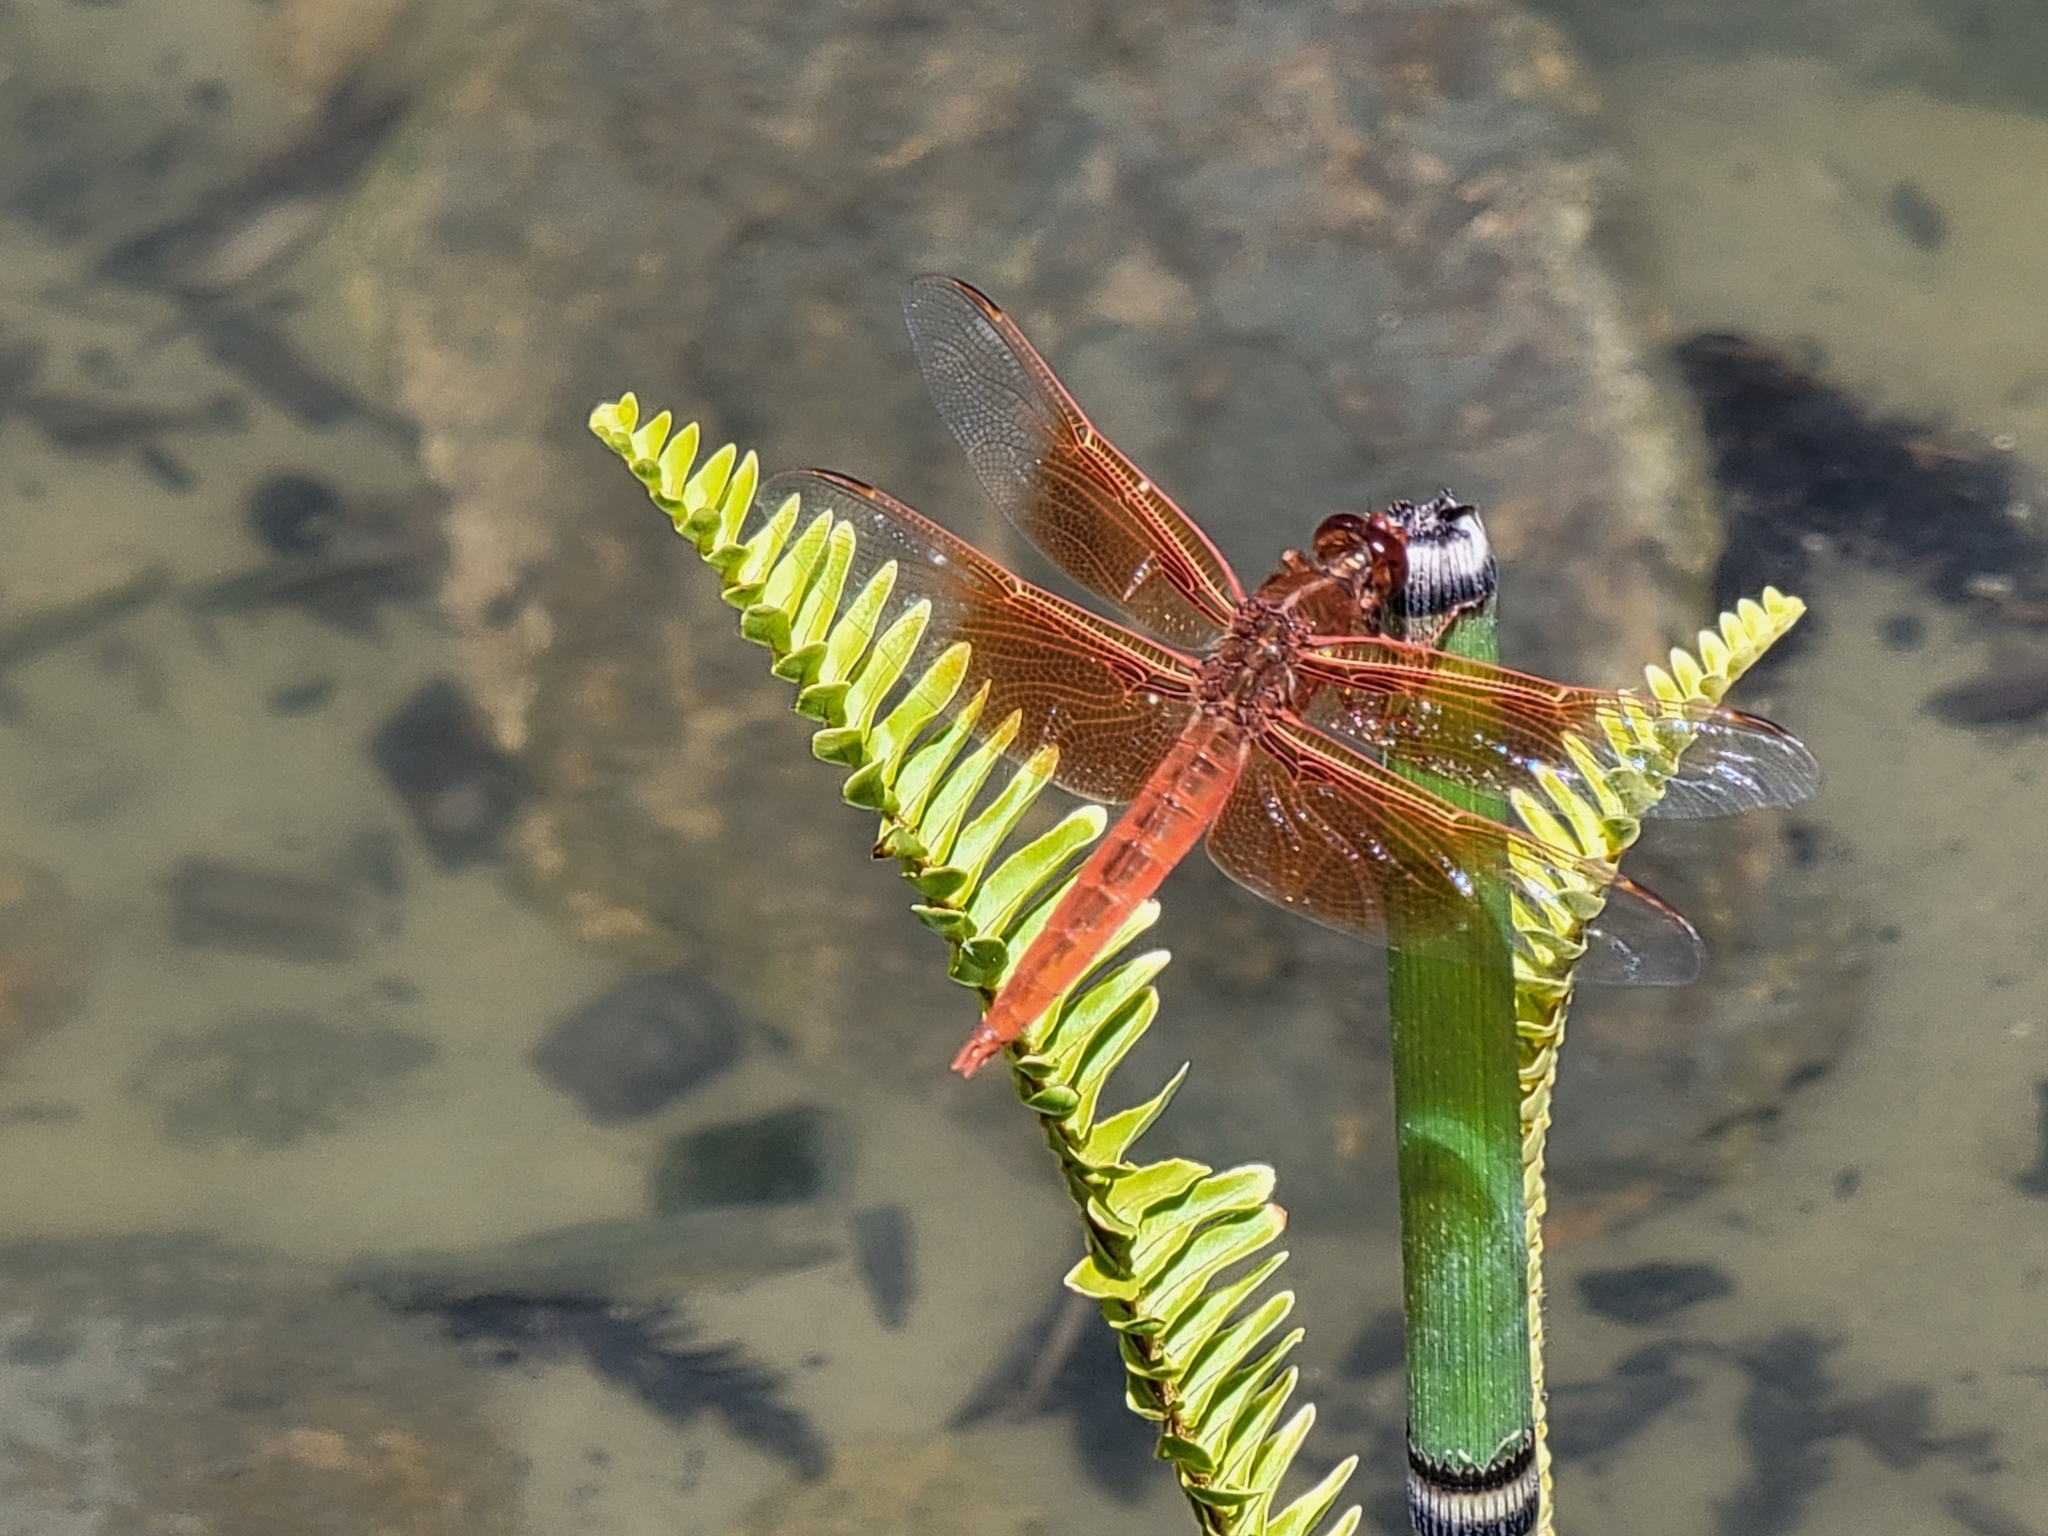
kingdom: Animalia
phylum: Arthropoda
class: Insecta
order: Odonata
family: Libellulidae
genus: Libellula
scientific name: Libellula saturata
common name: Flame skimmer
